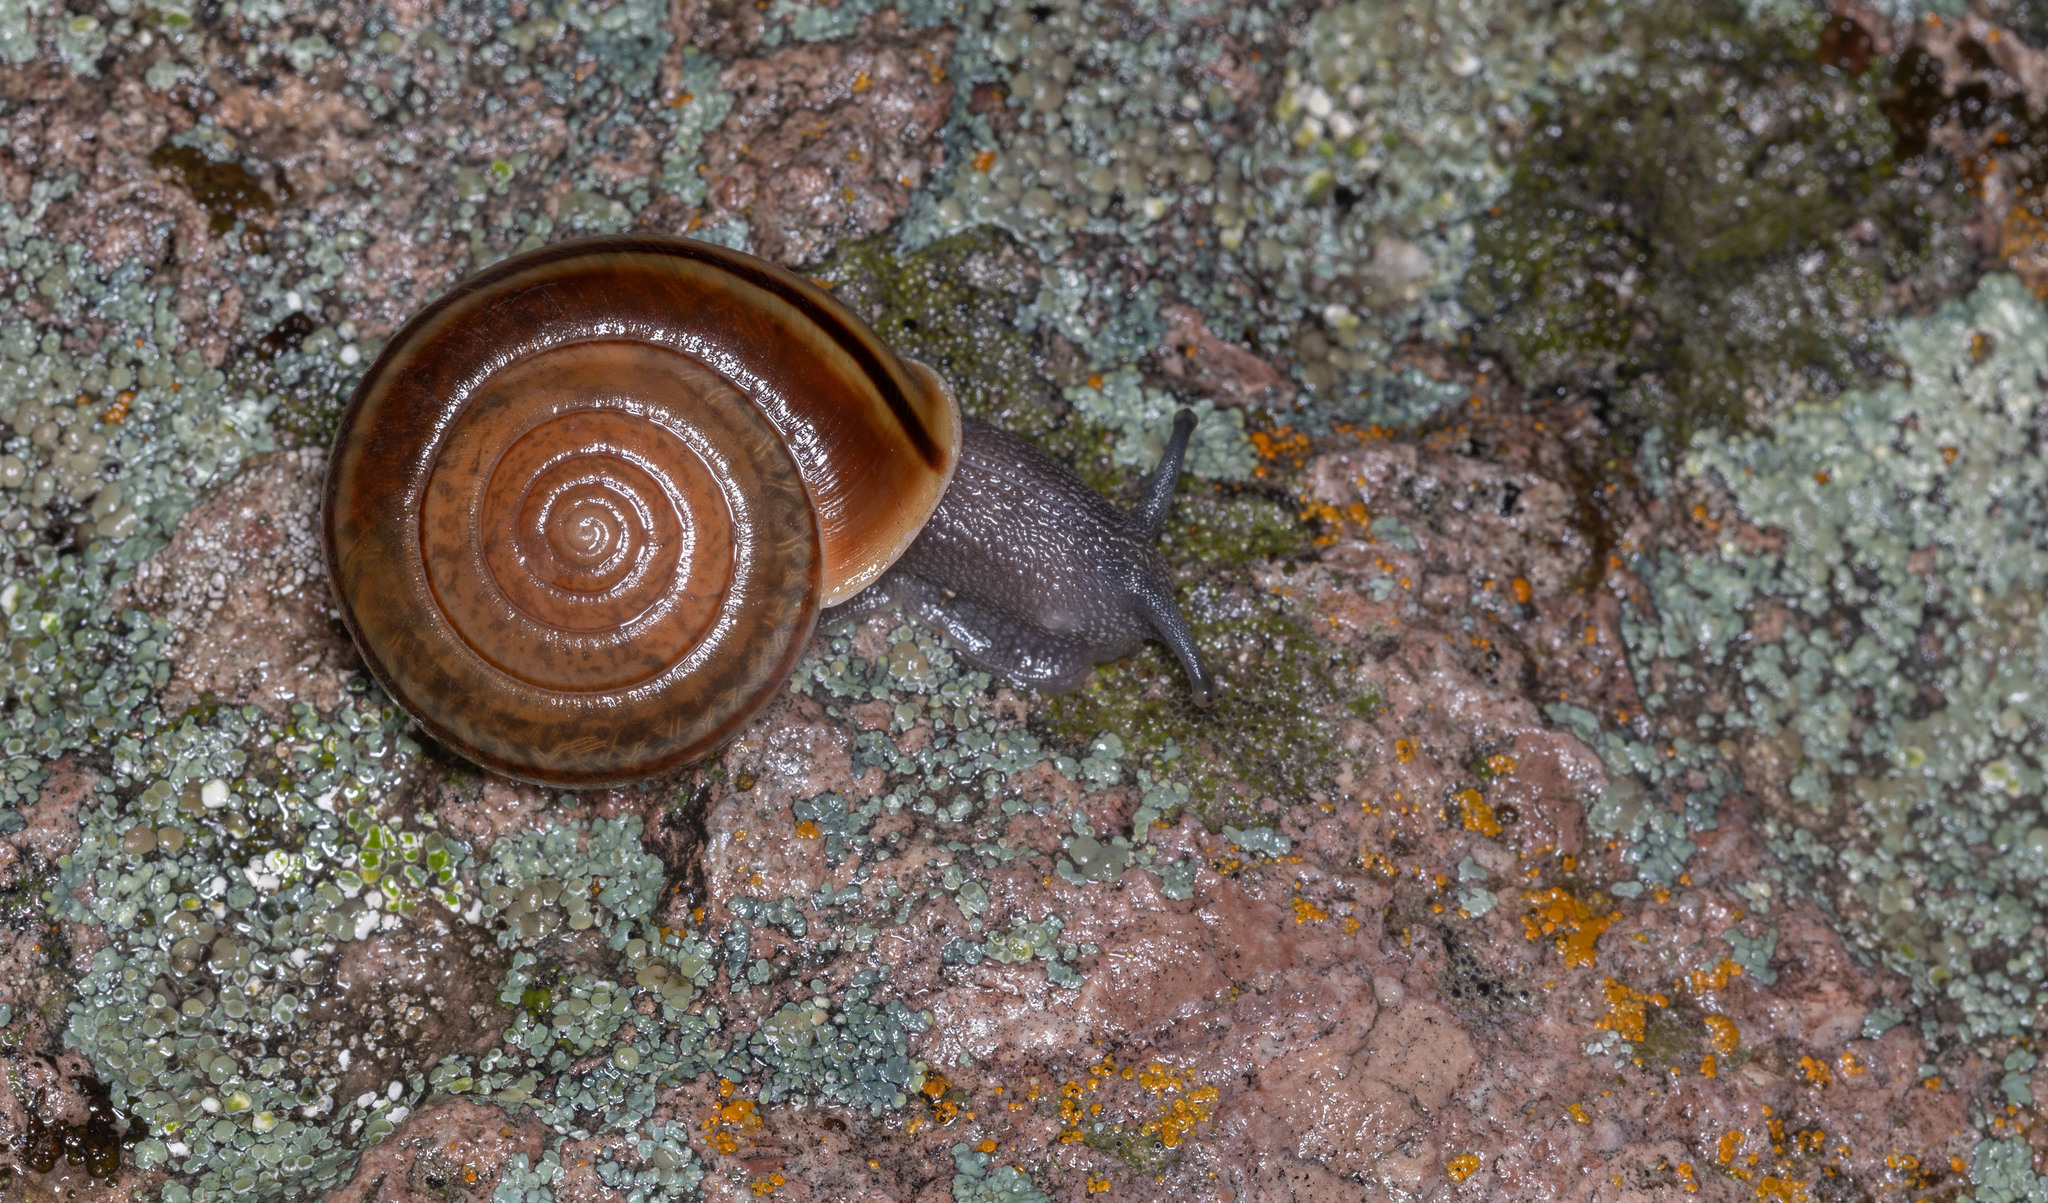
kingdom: Animalia
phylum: Mollusca
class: Gastropoda
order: Stylommatophora
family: Xanthonychidae
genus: Helminthoglypta
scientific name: Helminthoglypta benitoensis
